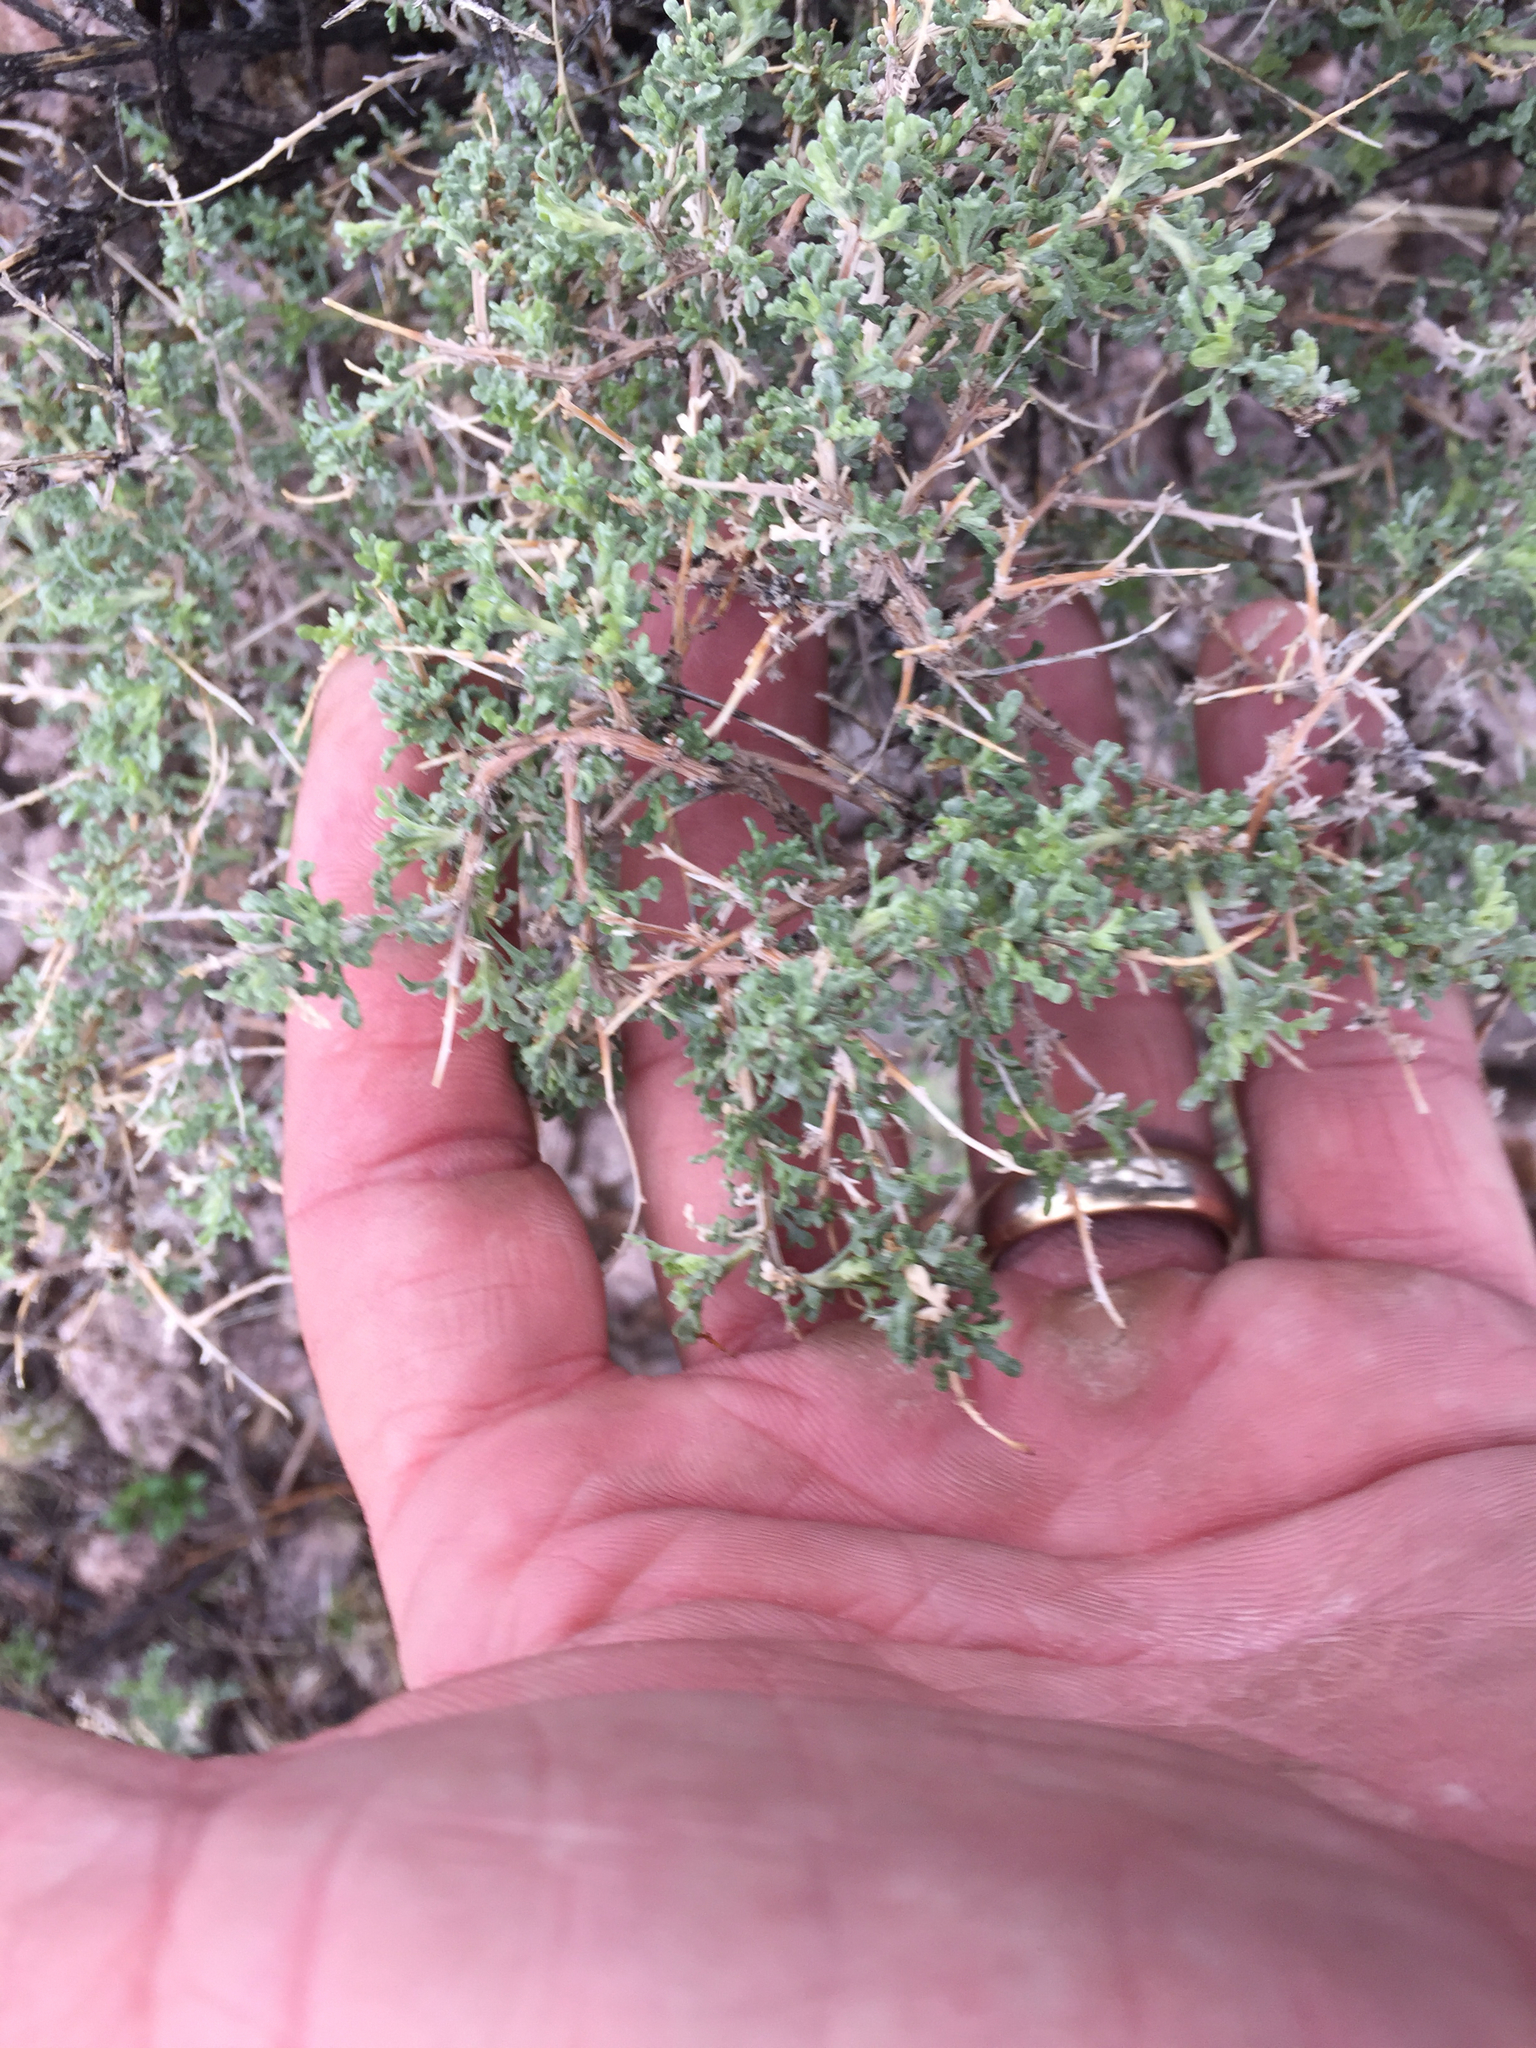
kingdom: Plantae
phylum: Tracheophyta
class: Magnoliopsida
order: Asterales
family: Asteraceae
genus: Ambrosia
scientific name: Ambrosia dumosa
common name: Bur-sage
